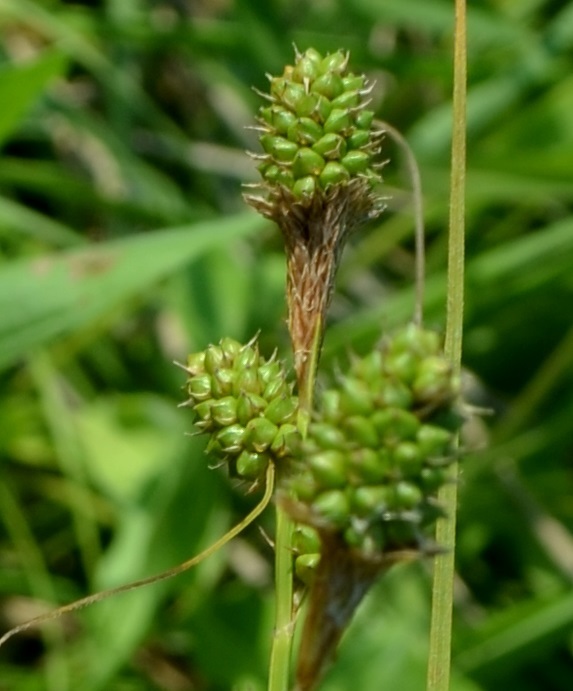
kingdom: Plantae
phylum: Tracheophyta
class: Liliopsida
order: Poales
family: Cyperaceae
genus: Carex
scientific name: Carex bushii
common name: Bush's sedge
